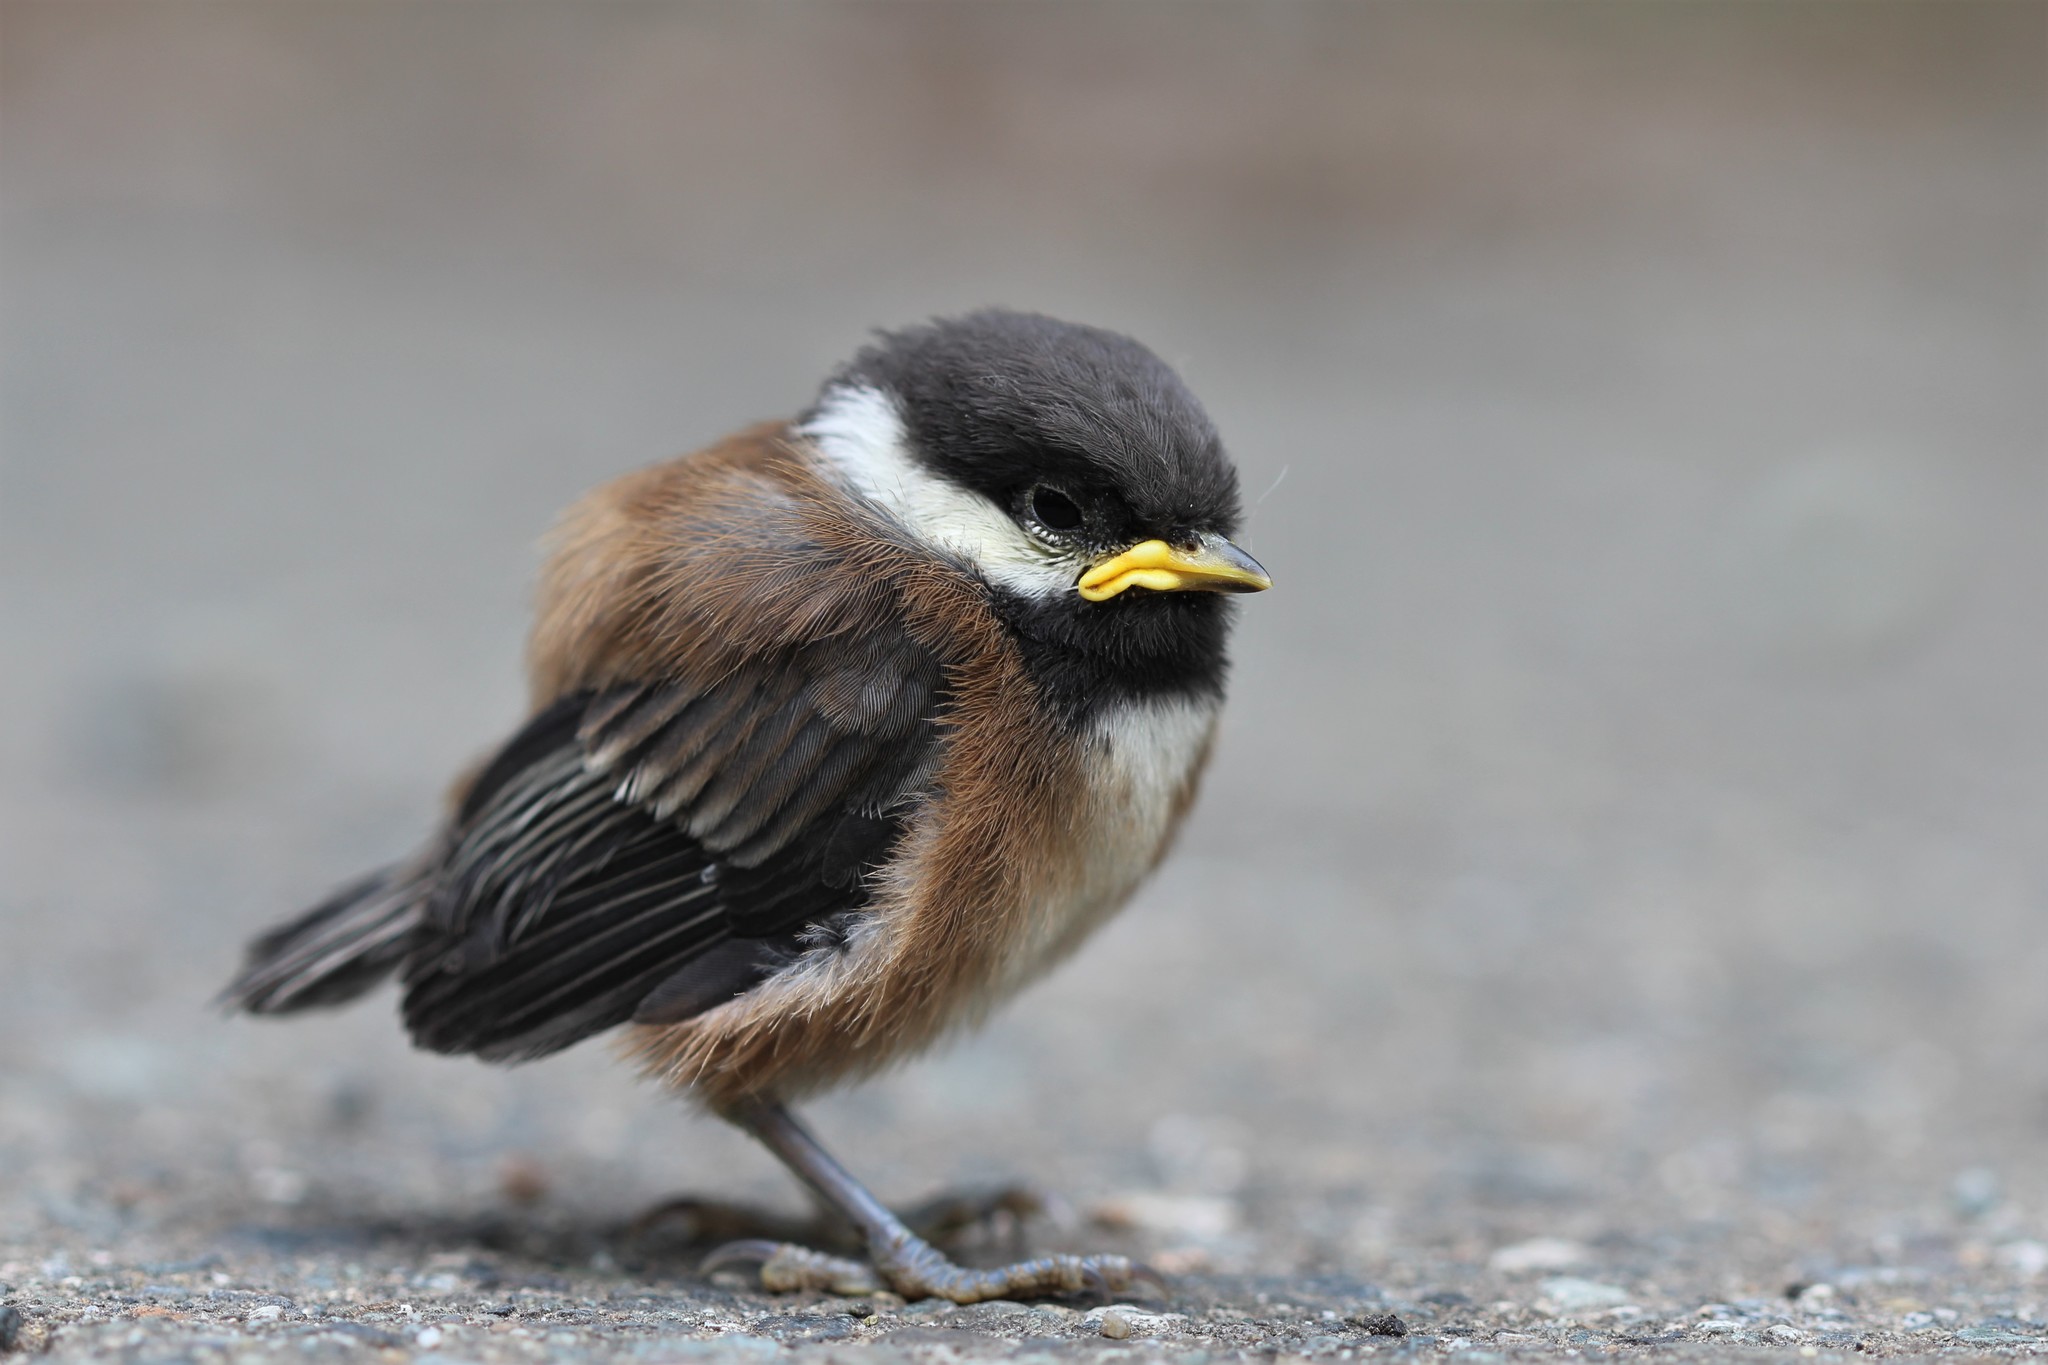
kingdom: Animalia
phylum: Chordata
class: Aves
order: Passeriformes
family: Paridae
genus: Poecile
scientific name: Poecile rufescens
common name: Chestnut-backed chickadee
